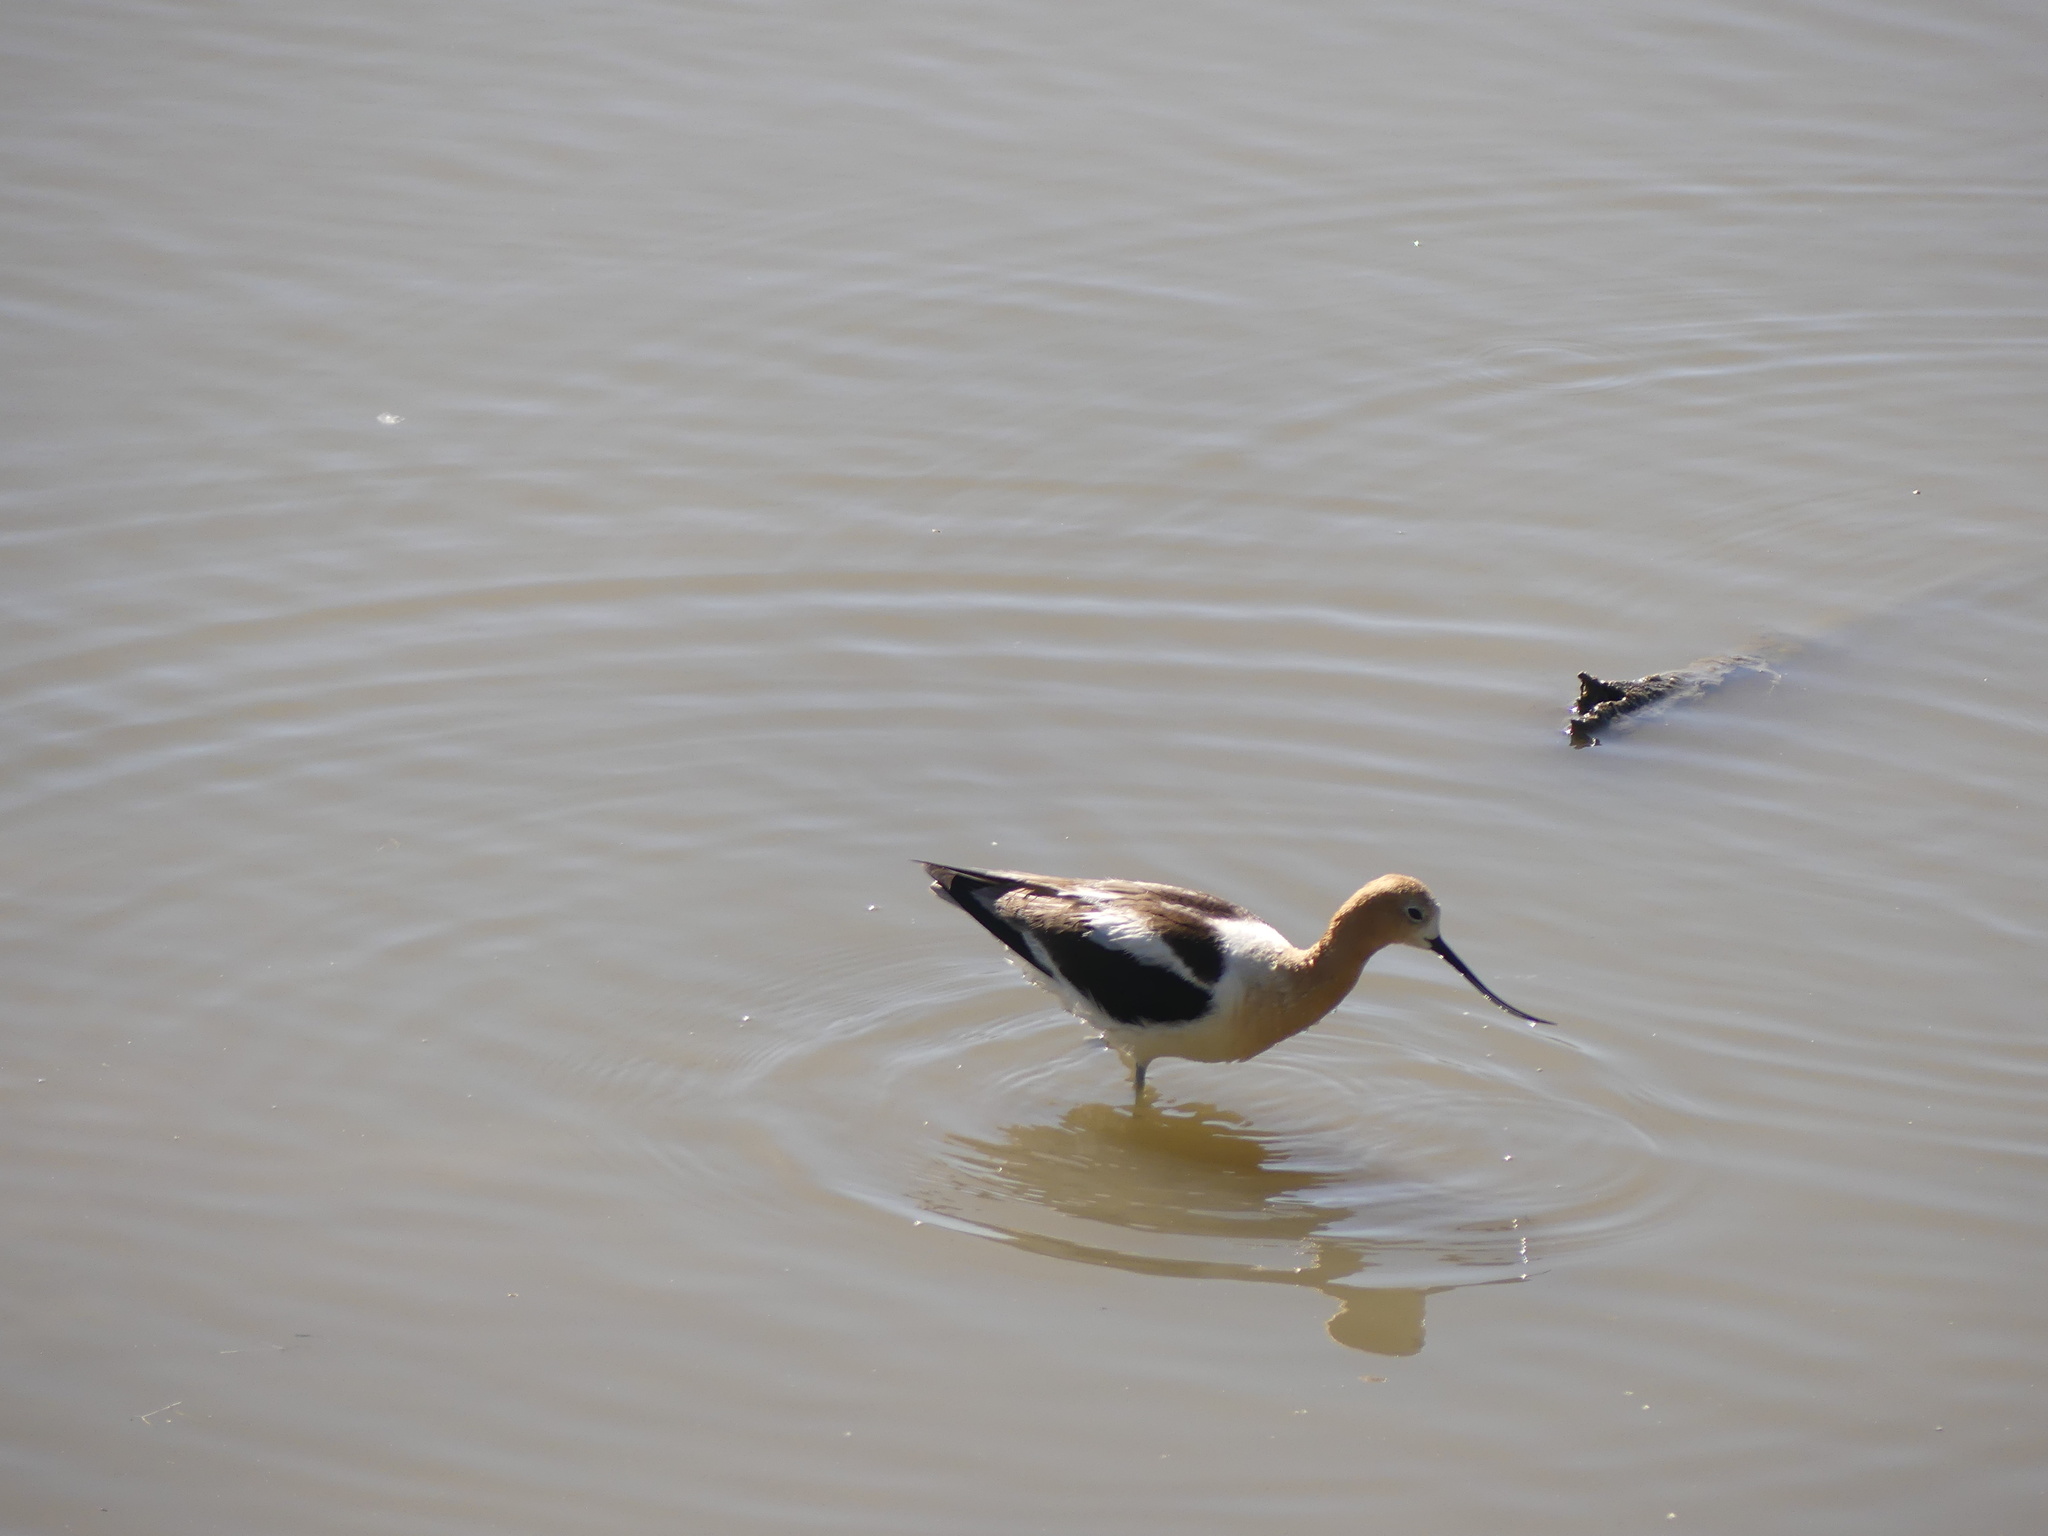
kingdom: Animalia
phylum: Chordata
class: Aves
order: Charadriiformes
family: Recurvirostridae
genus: Recurvirostra
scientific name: Recurvirostra americana
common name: American avocet
